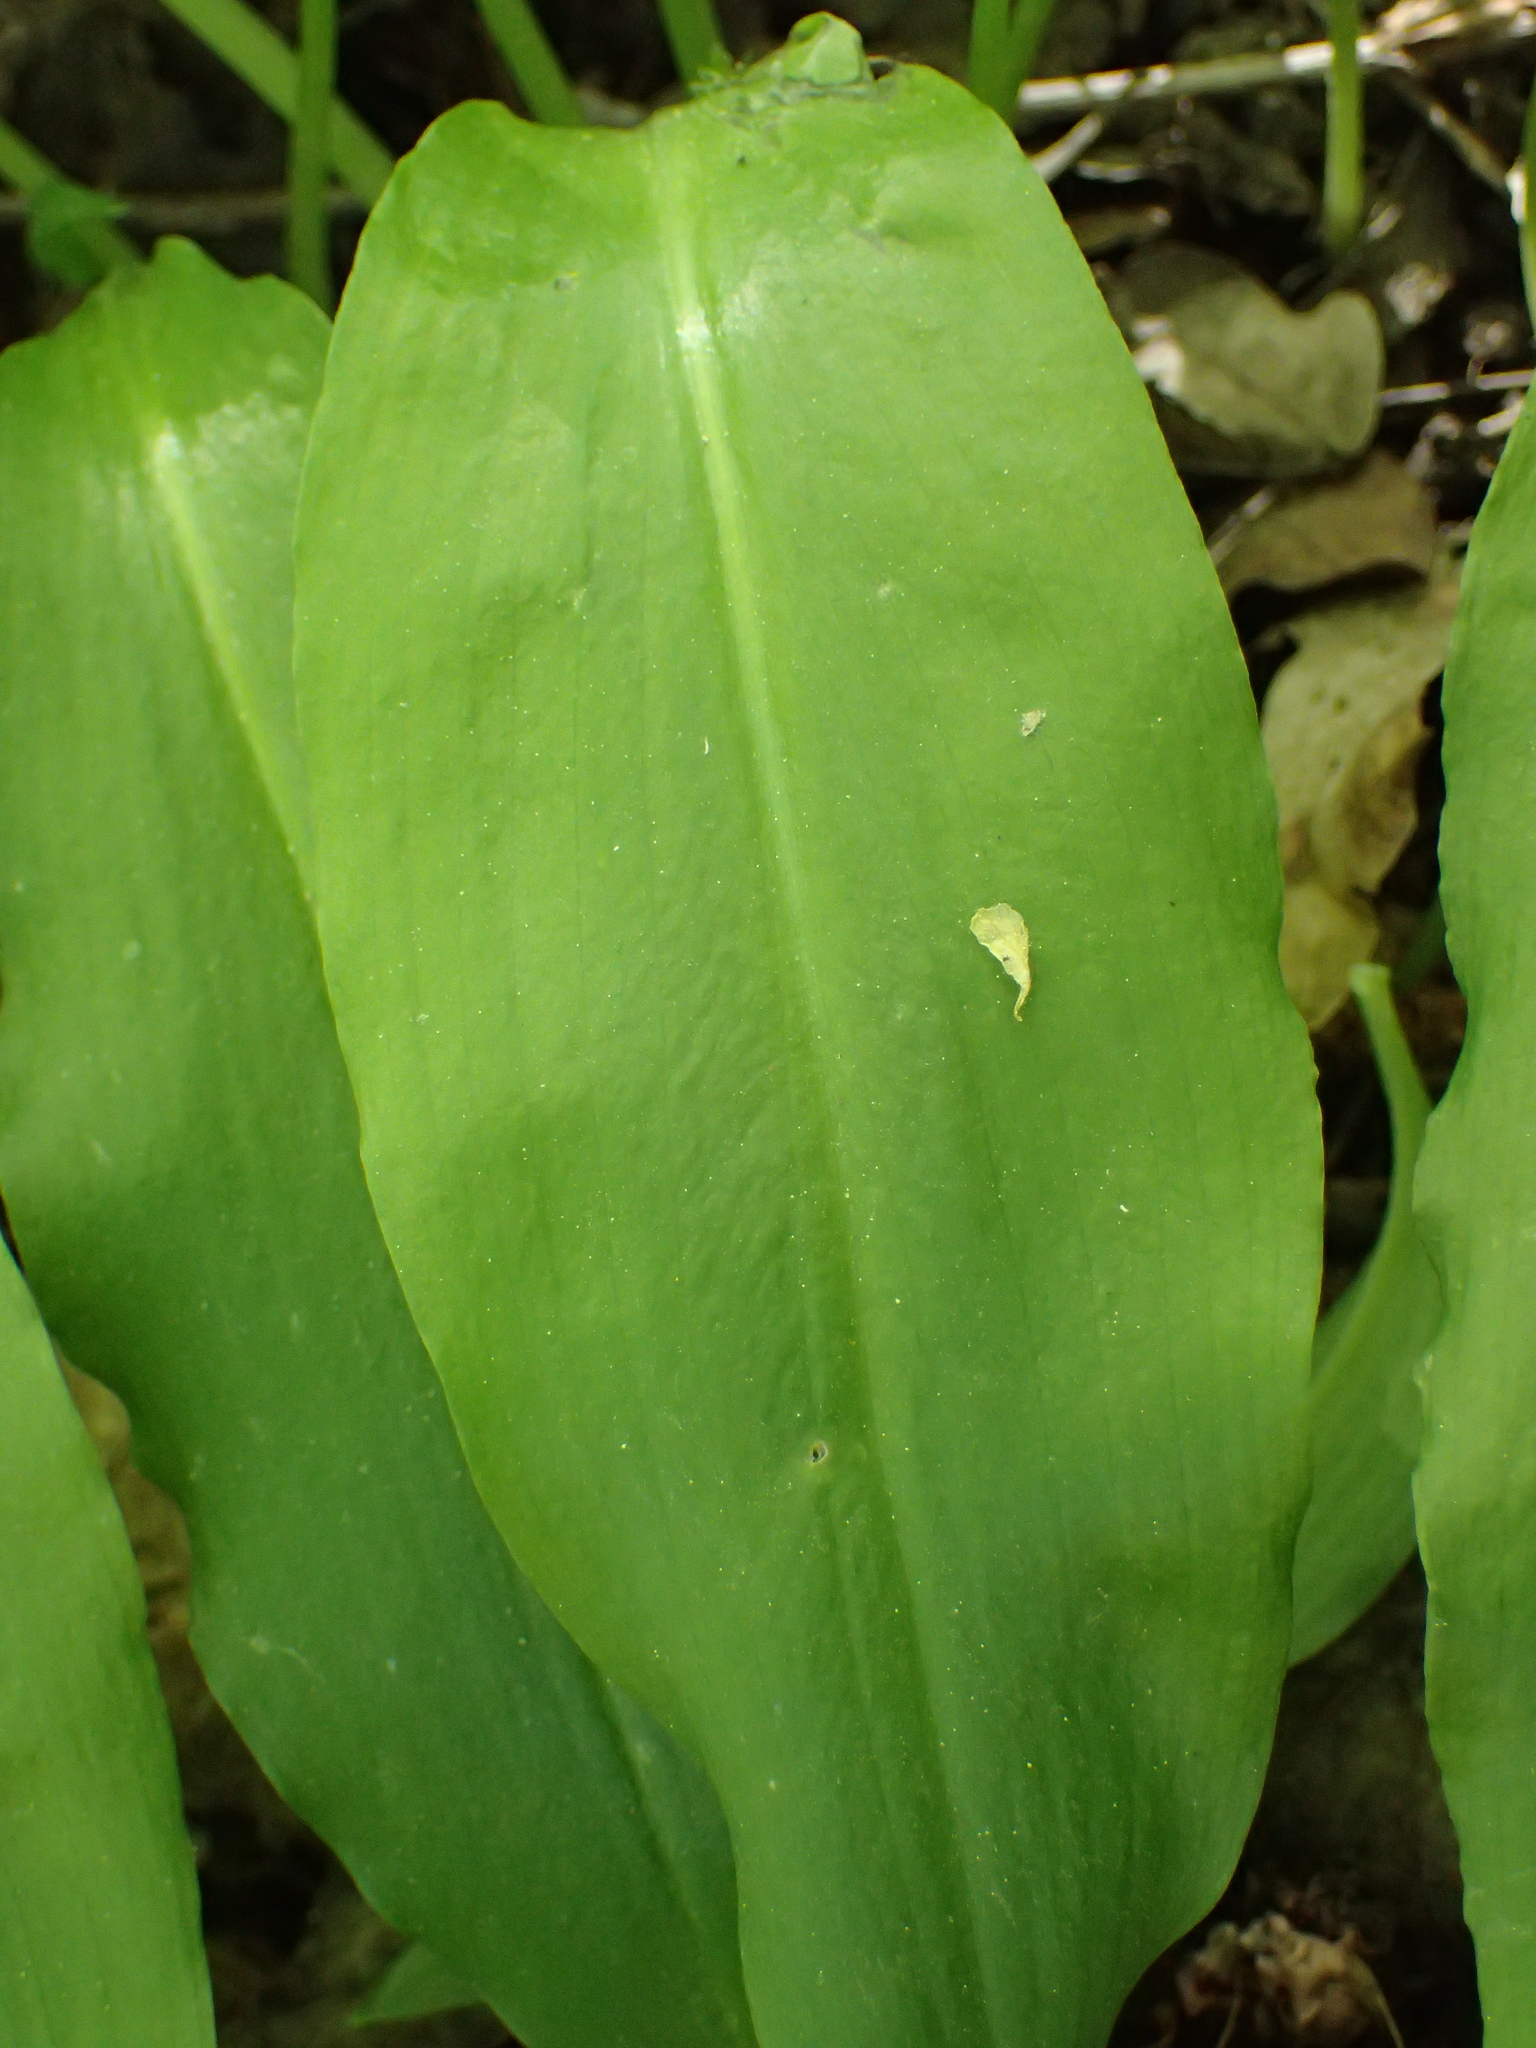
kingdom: Plantae
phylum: Tracheophyta
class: Liliopsida
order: Asparagales
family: Amaryllidaceae
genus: Allium
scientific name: Allium ursinum
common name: Ramsons
